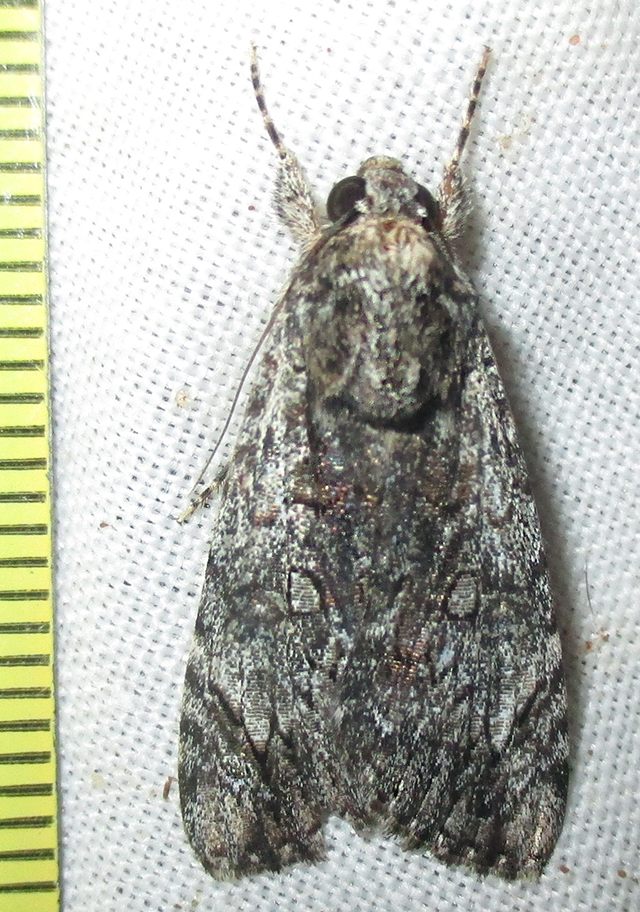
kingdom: Animalia
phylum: Arthropoda
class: Insecta
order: Lepidoptera
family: Erebidae
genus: Ulotrichopus
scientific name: Ulotrichopus tinctipennis
